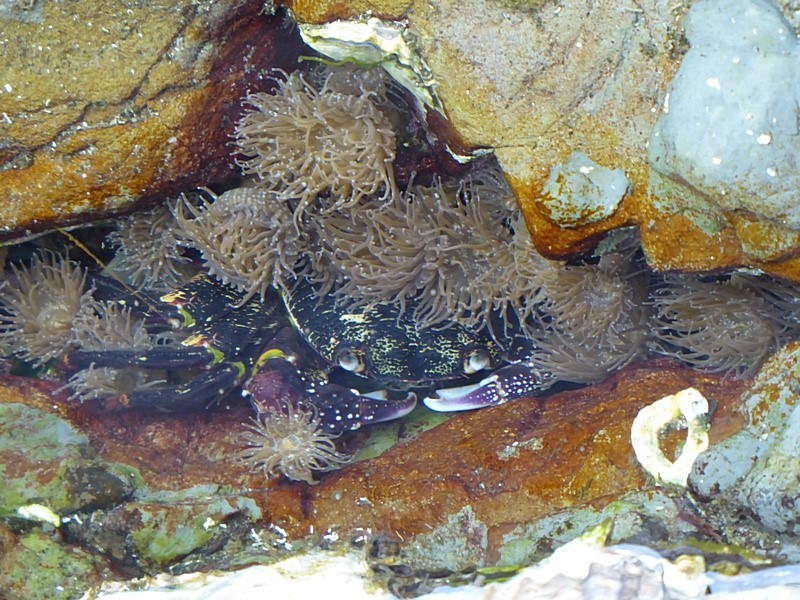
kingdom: Animalia
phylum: Cnidaria
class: Anthozoa
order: Actiniaria
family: Actiniidae
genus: Anthopleura
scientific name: Anthopleura hermaphroditica
